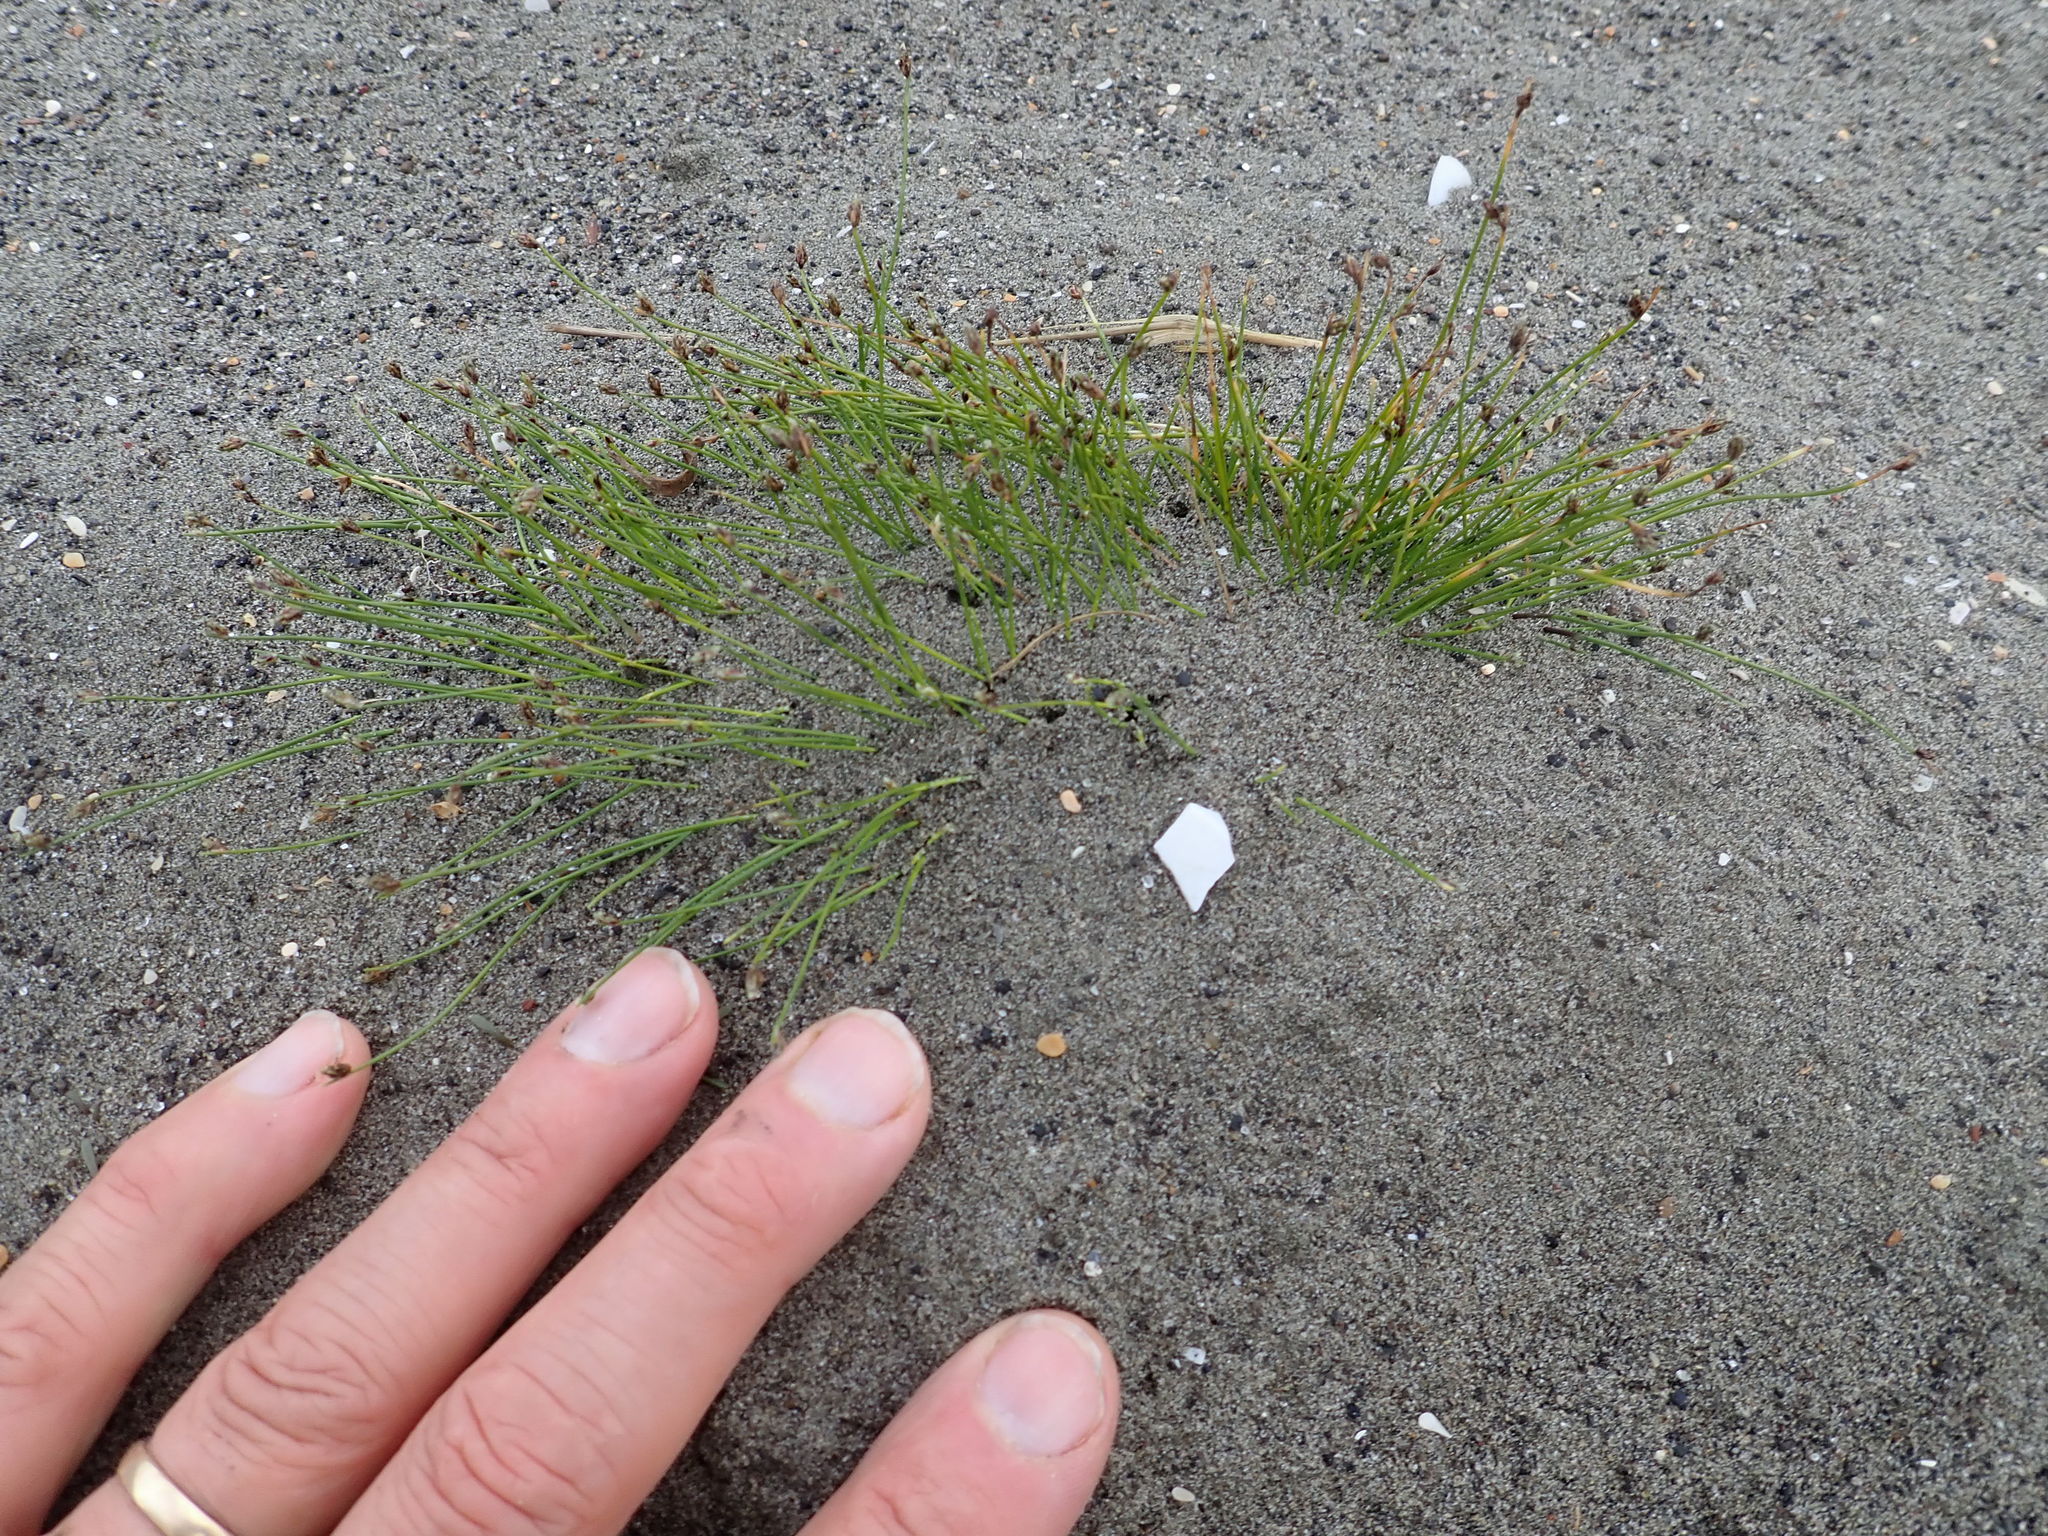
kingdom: Plantae
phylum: Tracheophyta
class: Liliopsida
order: Poales
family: Cyperaceae
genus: Isolepis
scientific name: Isolepis cernua
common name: Slender club-rush
